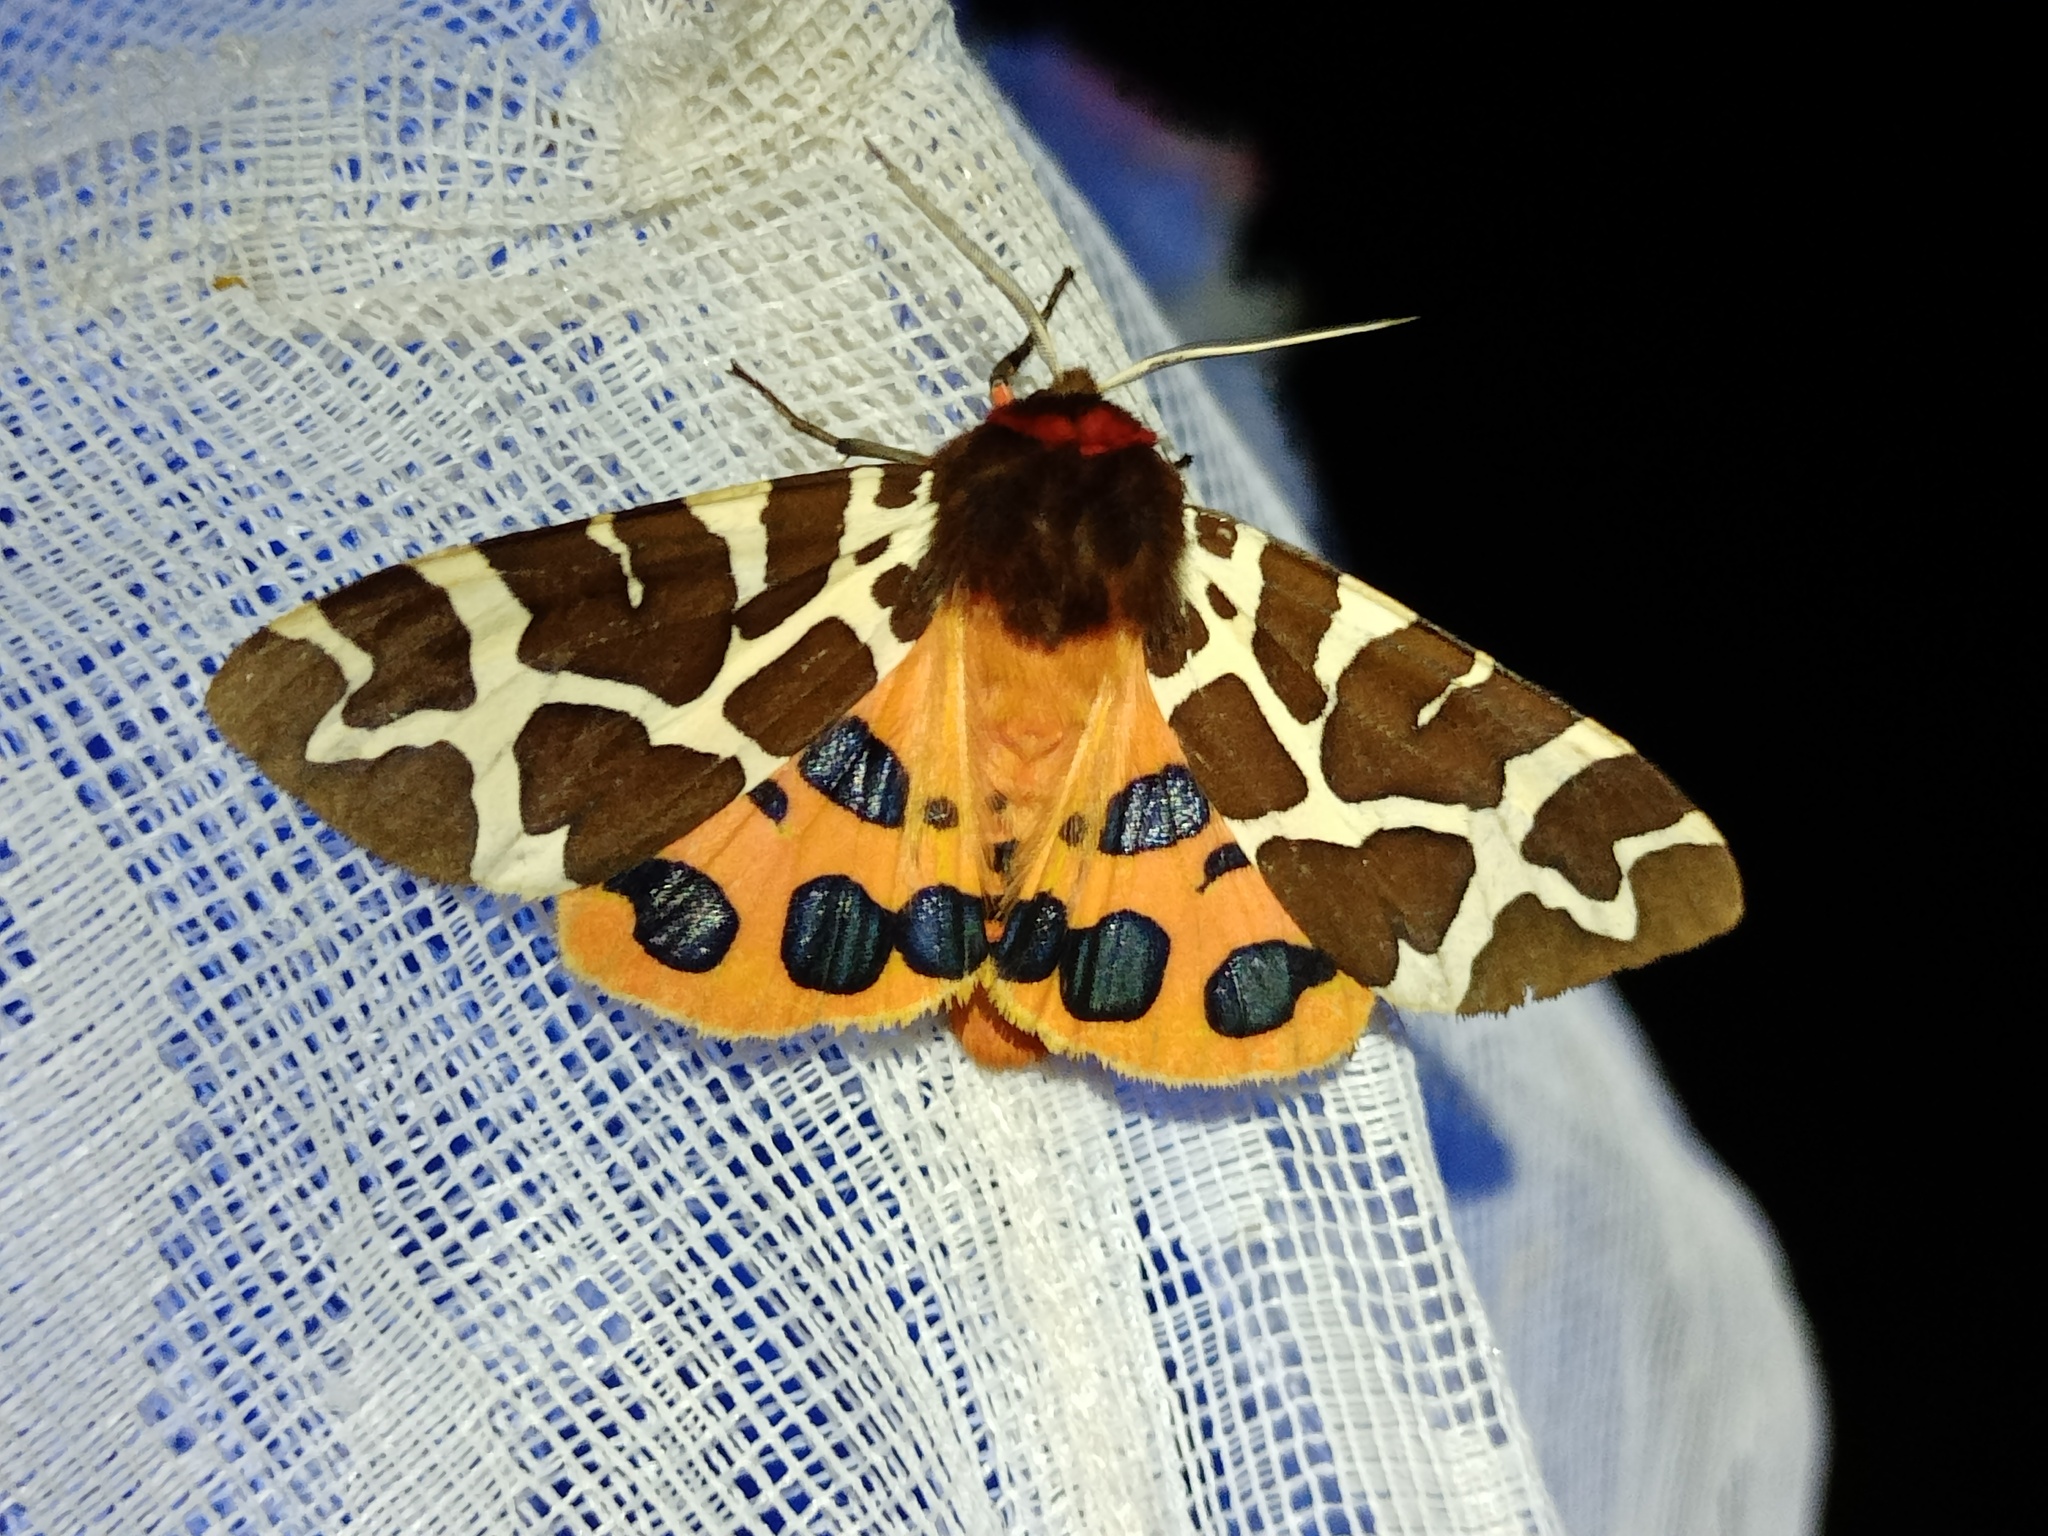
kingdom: Animalia
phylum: Arthropoda
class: Insecta
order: Lepidoptera
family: Erebidae
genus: Arctia
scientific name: Arctia caja
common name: Garden tiger
